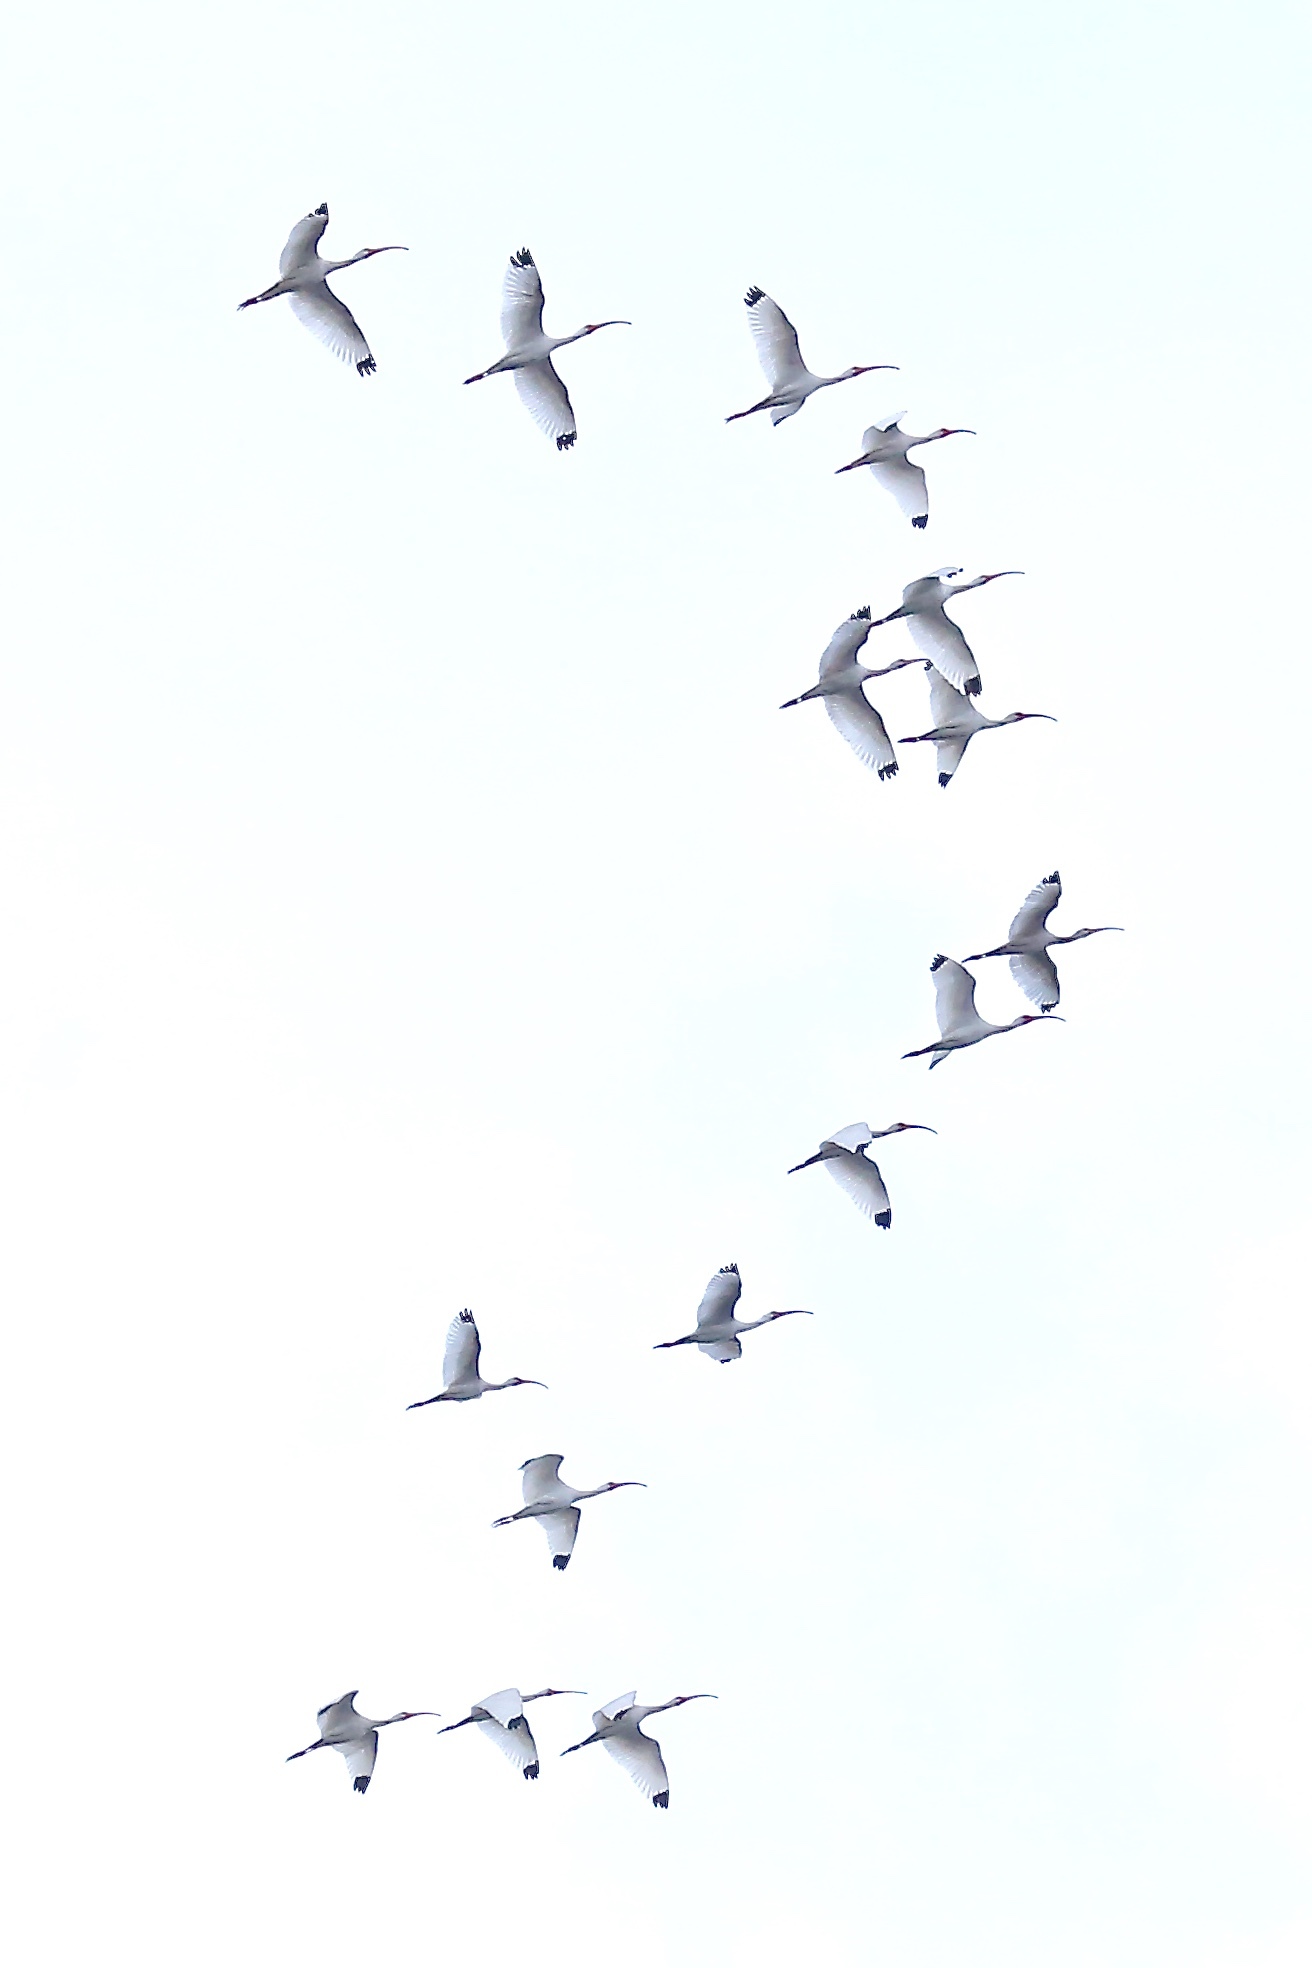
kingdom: Animalia
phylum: Chordata
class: Aves
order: Pelecaniformes
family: Threskiornithidae
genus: Eudocimus
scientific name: Eudocimus albus
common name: White ibis
